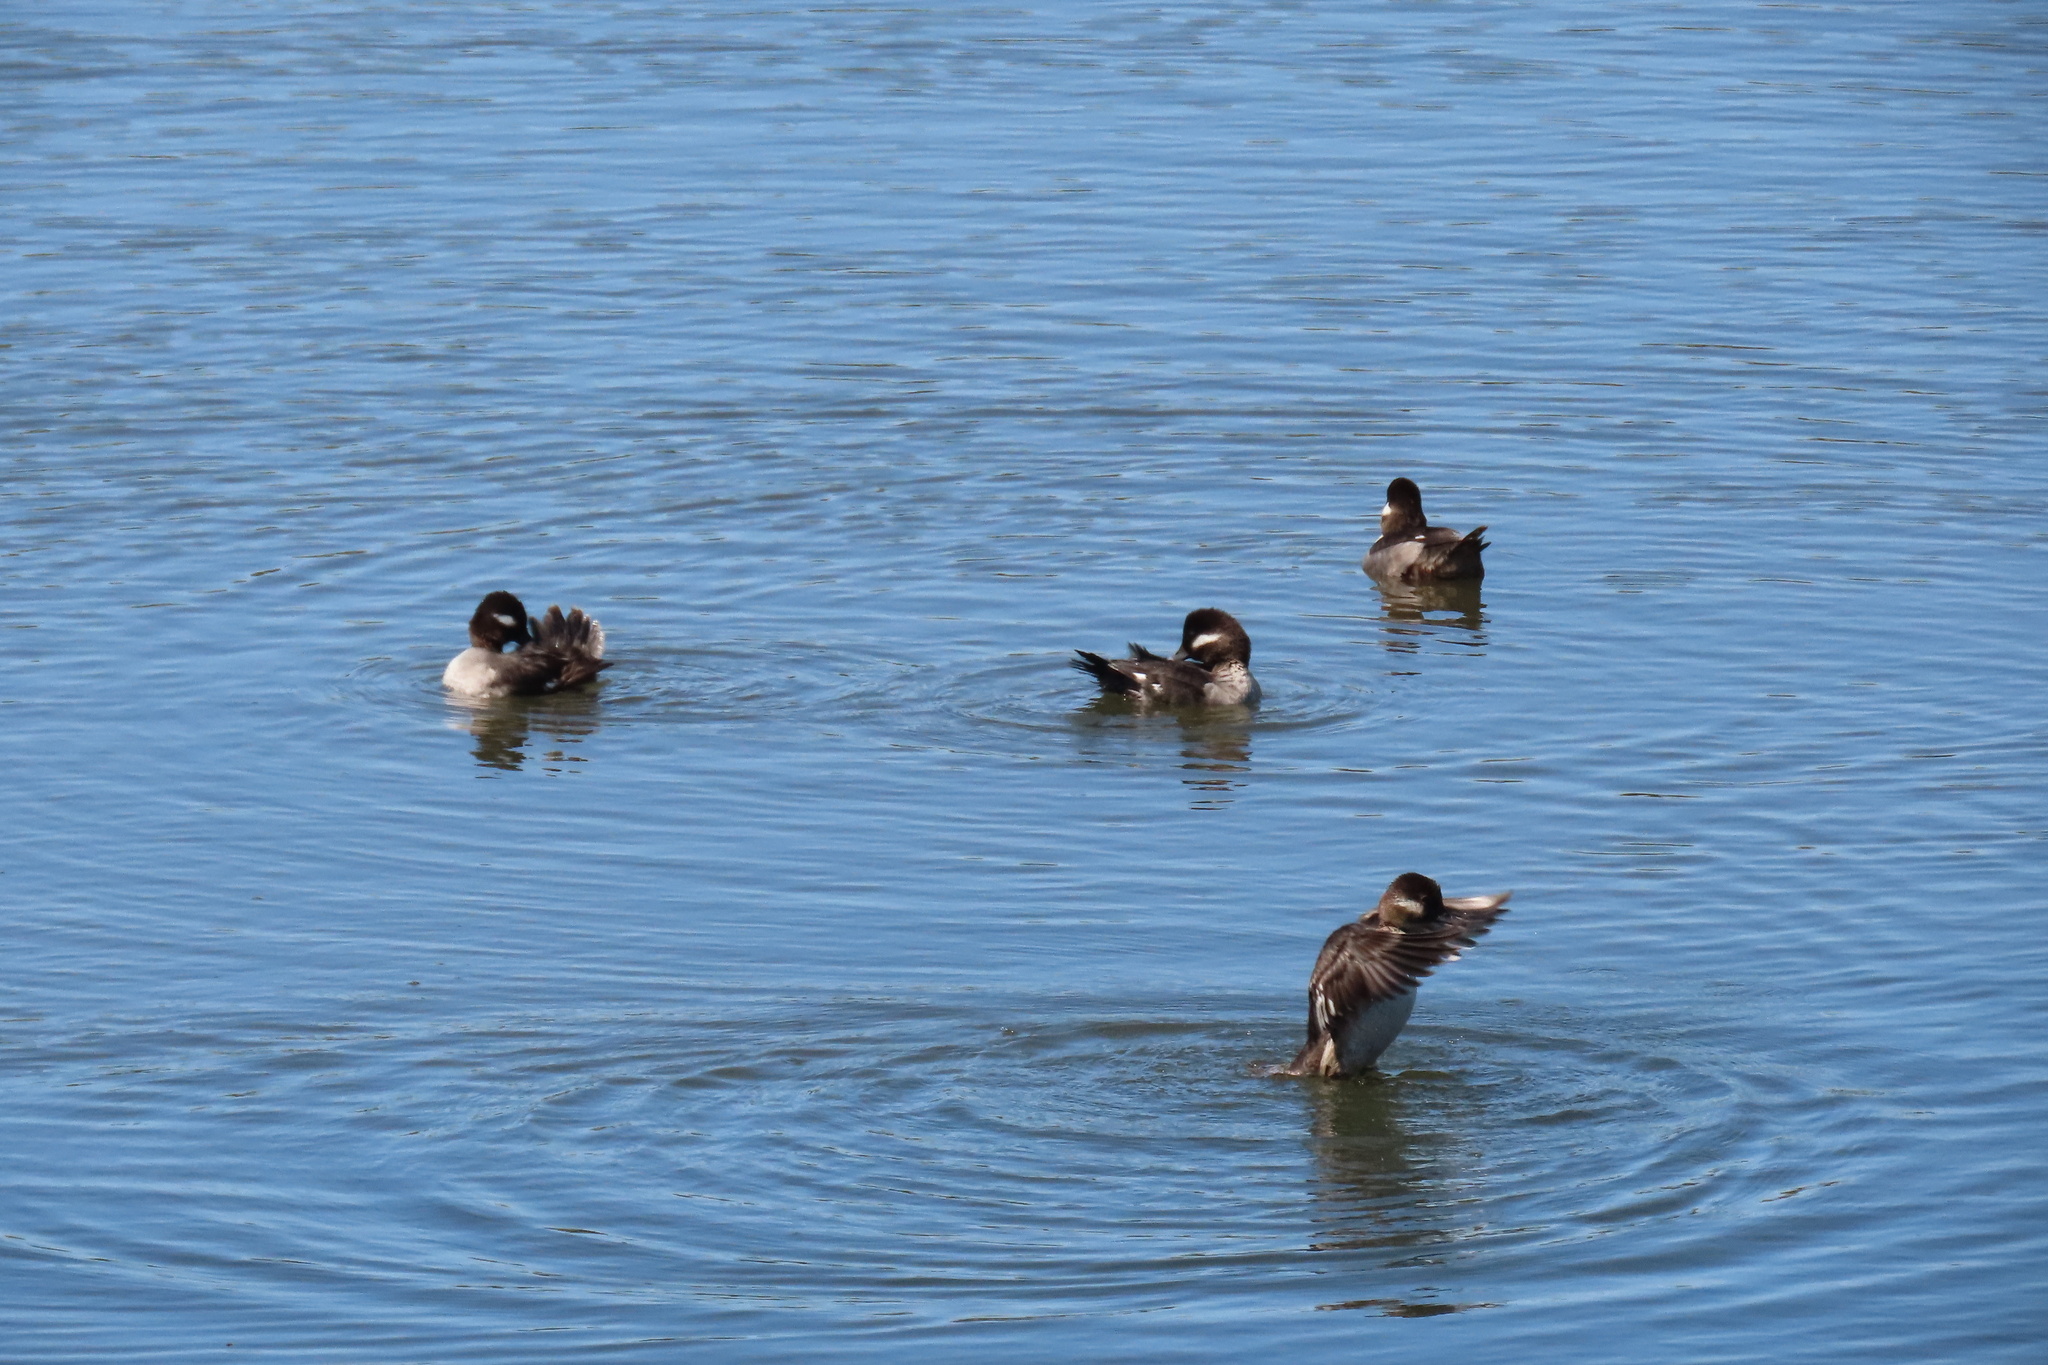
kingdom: Animalia
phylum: Chordata
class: Aves
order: Anseriformes
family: Anatidae
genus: Bucephala
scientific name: Bucephala albeola
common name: Bufflehead
